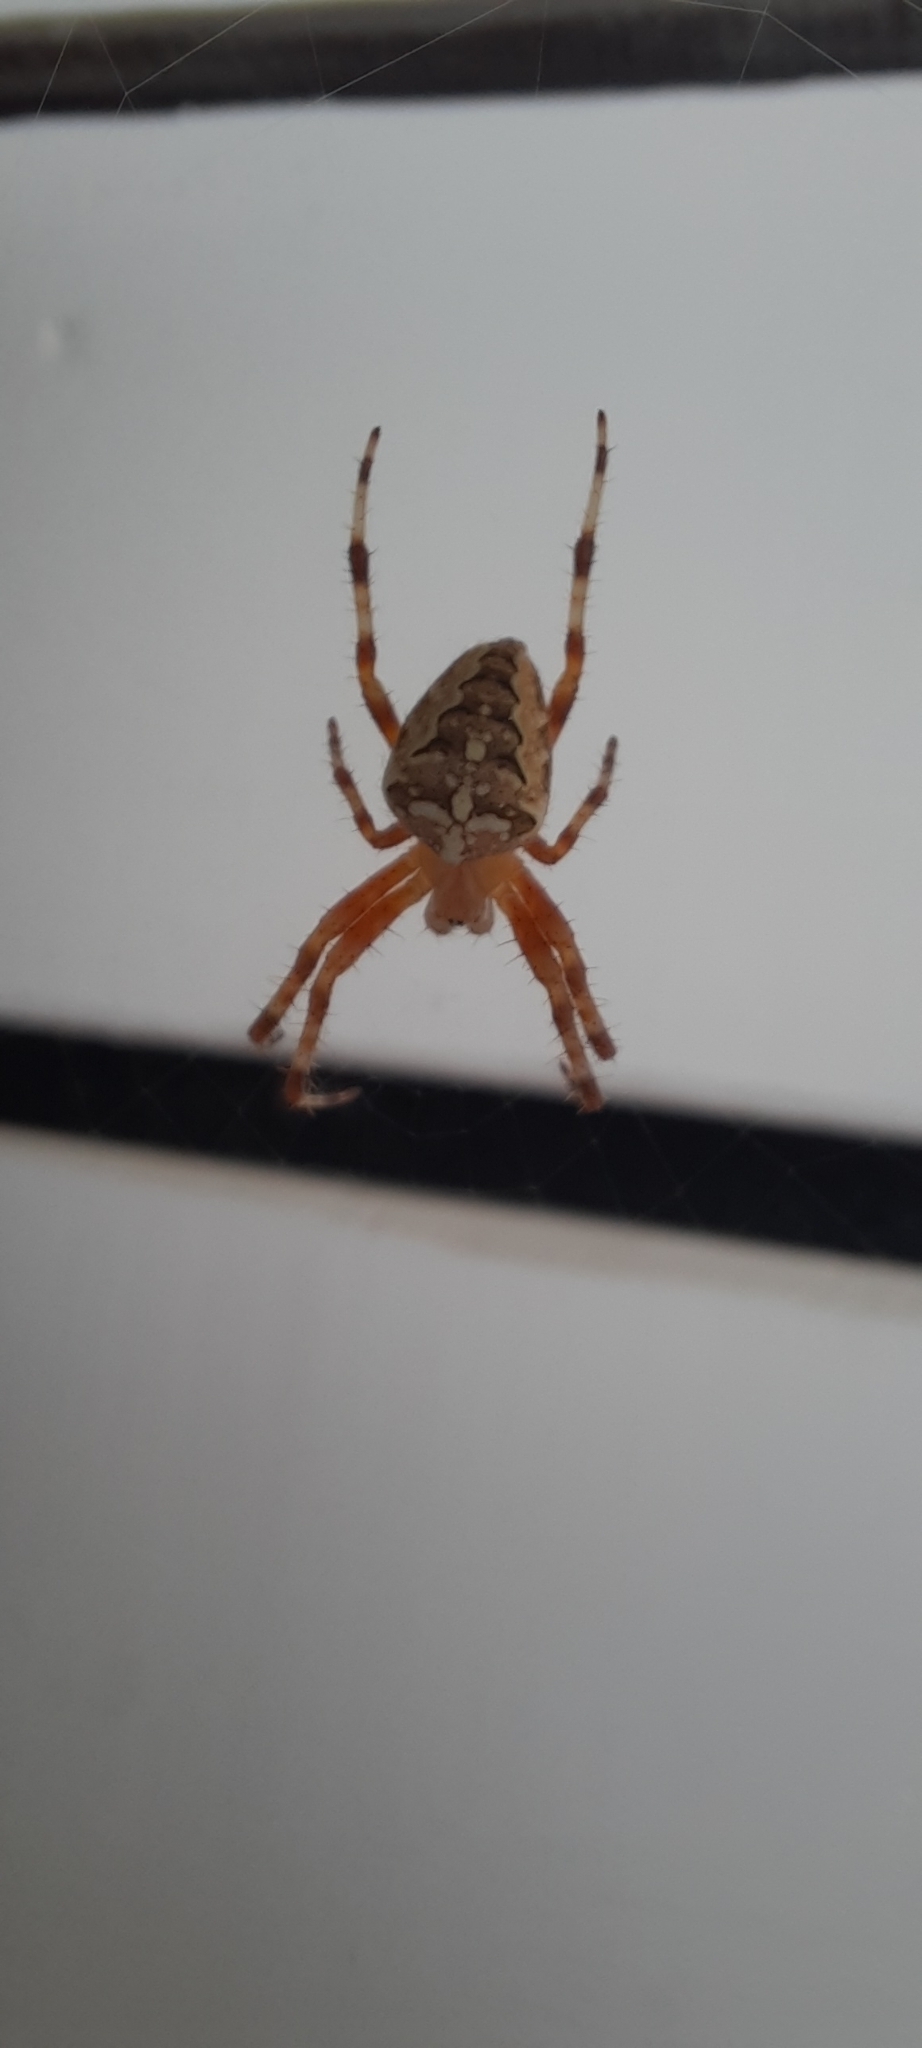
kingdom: Animalia
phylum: Arthropoda
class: Arachnida
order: Araneae
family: Araneidae
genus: Araneus
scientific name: Araneus diadematus
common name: Cross orbweaver
